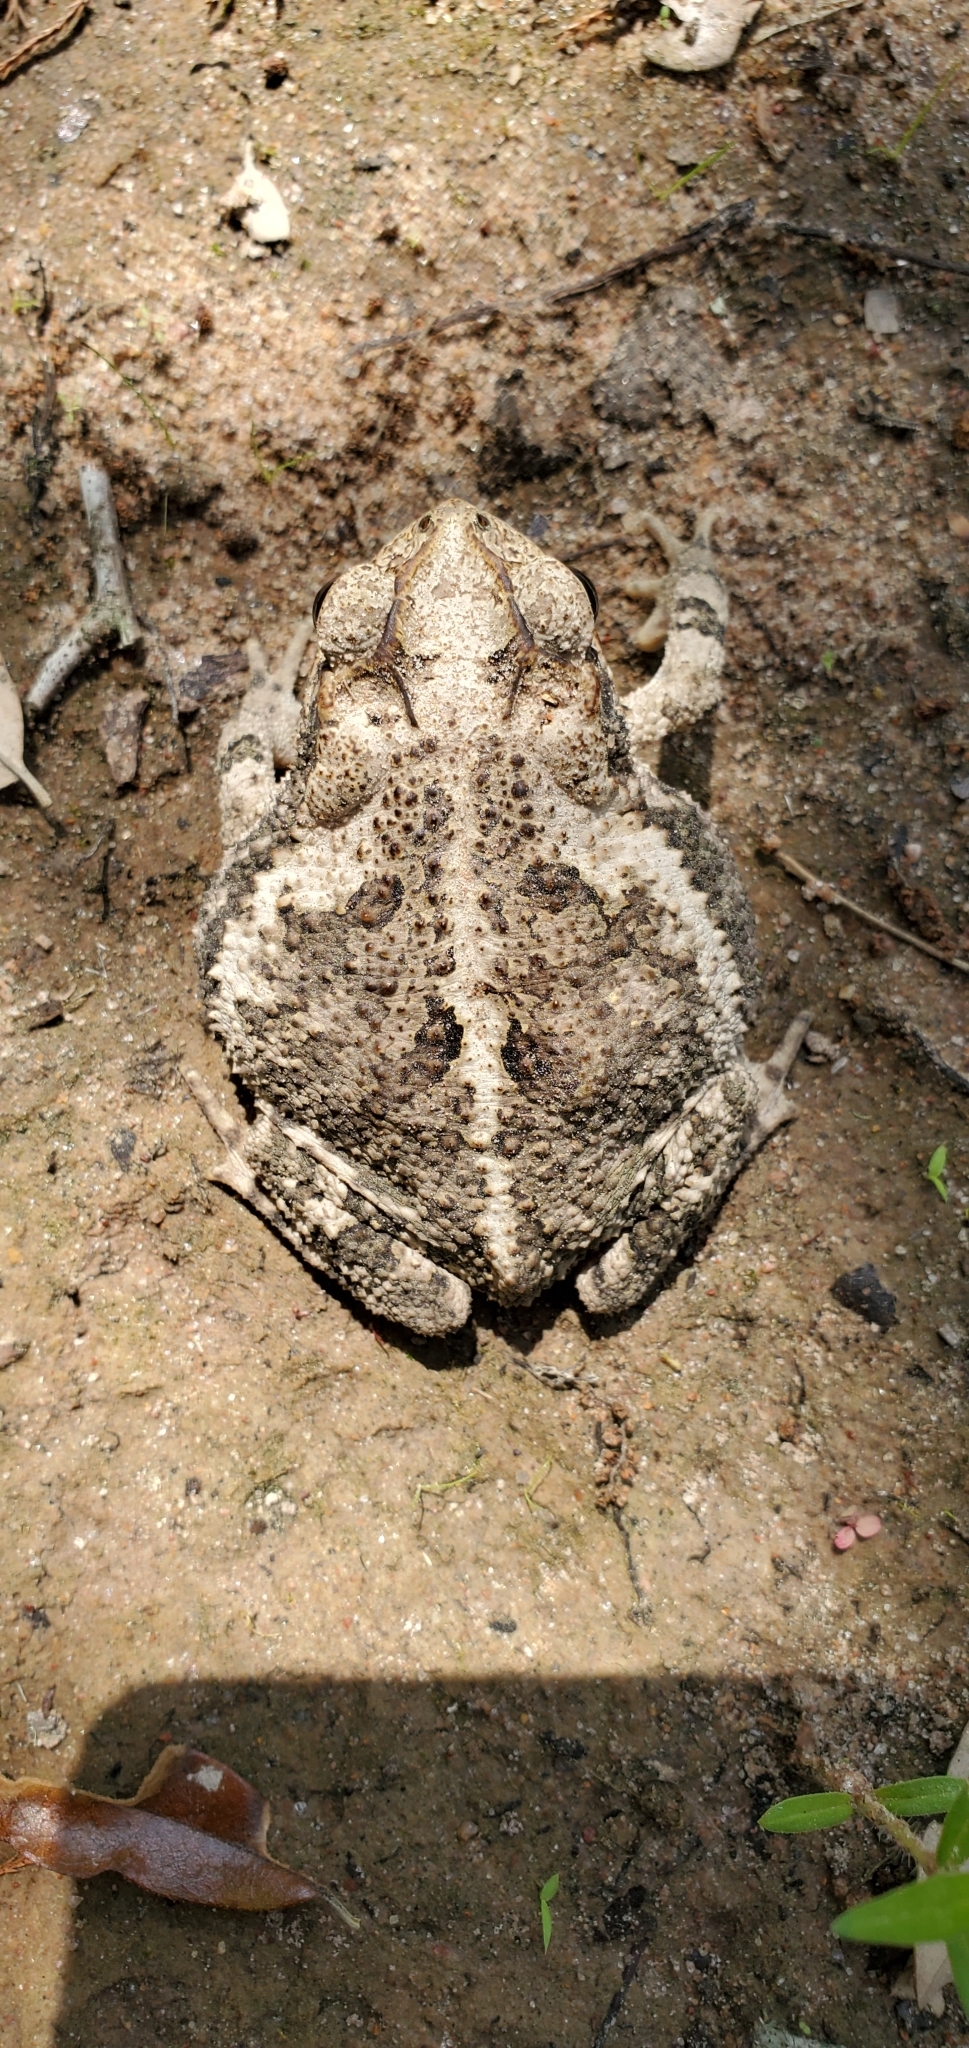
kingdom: Animalia
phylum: Chordata
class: Amphibia
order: Anura
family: Bufonidae
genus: Incilius
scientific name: Incilius nebulifer
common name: Gulf coast toad
